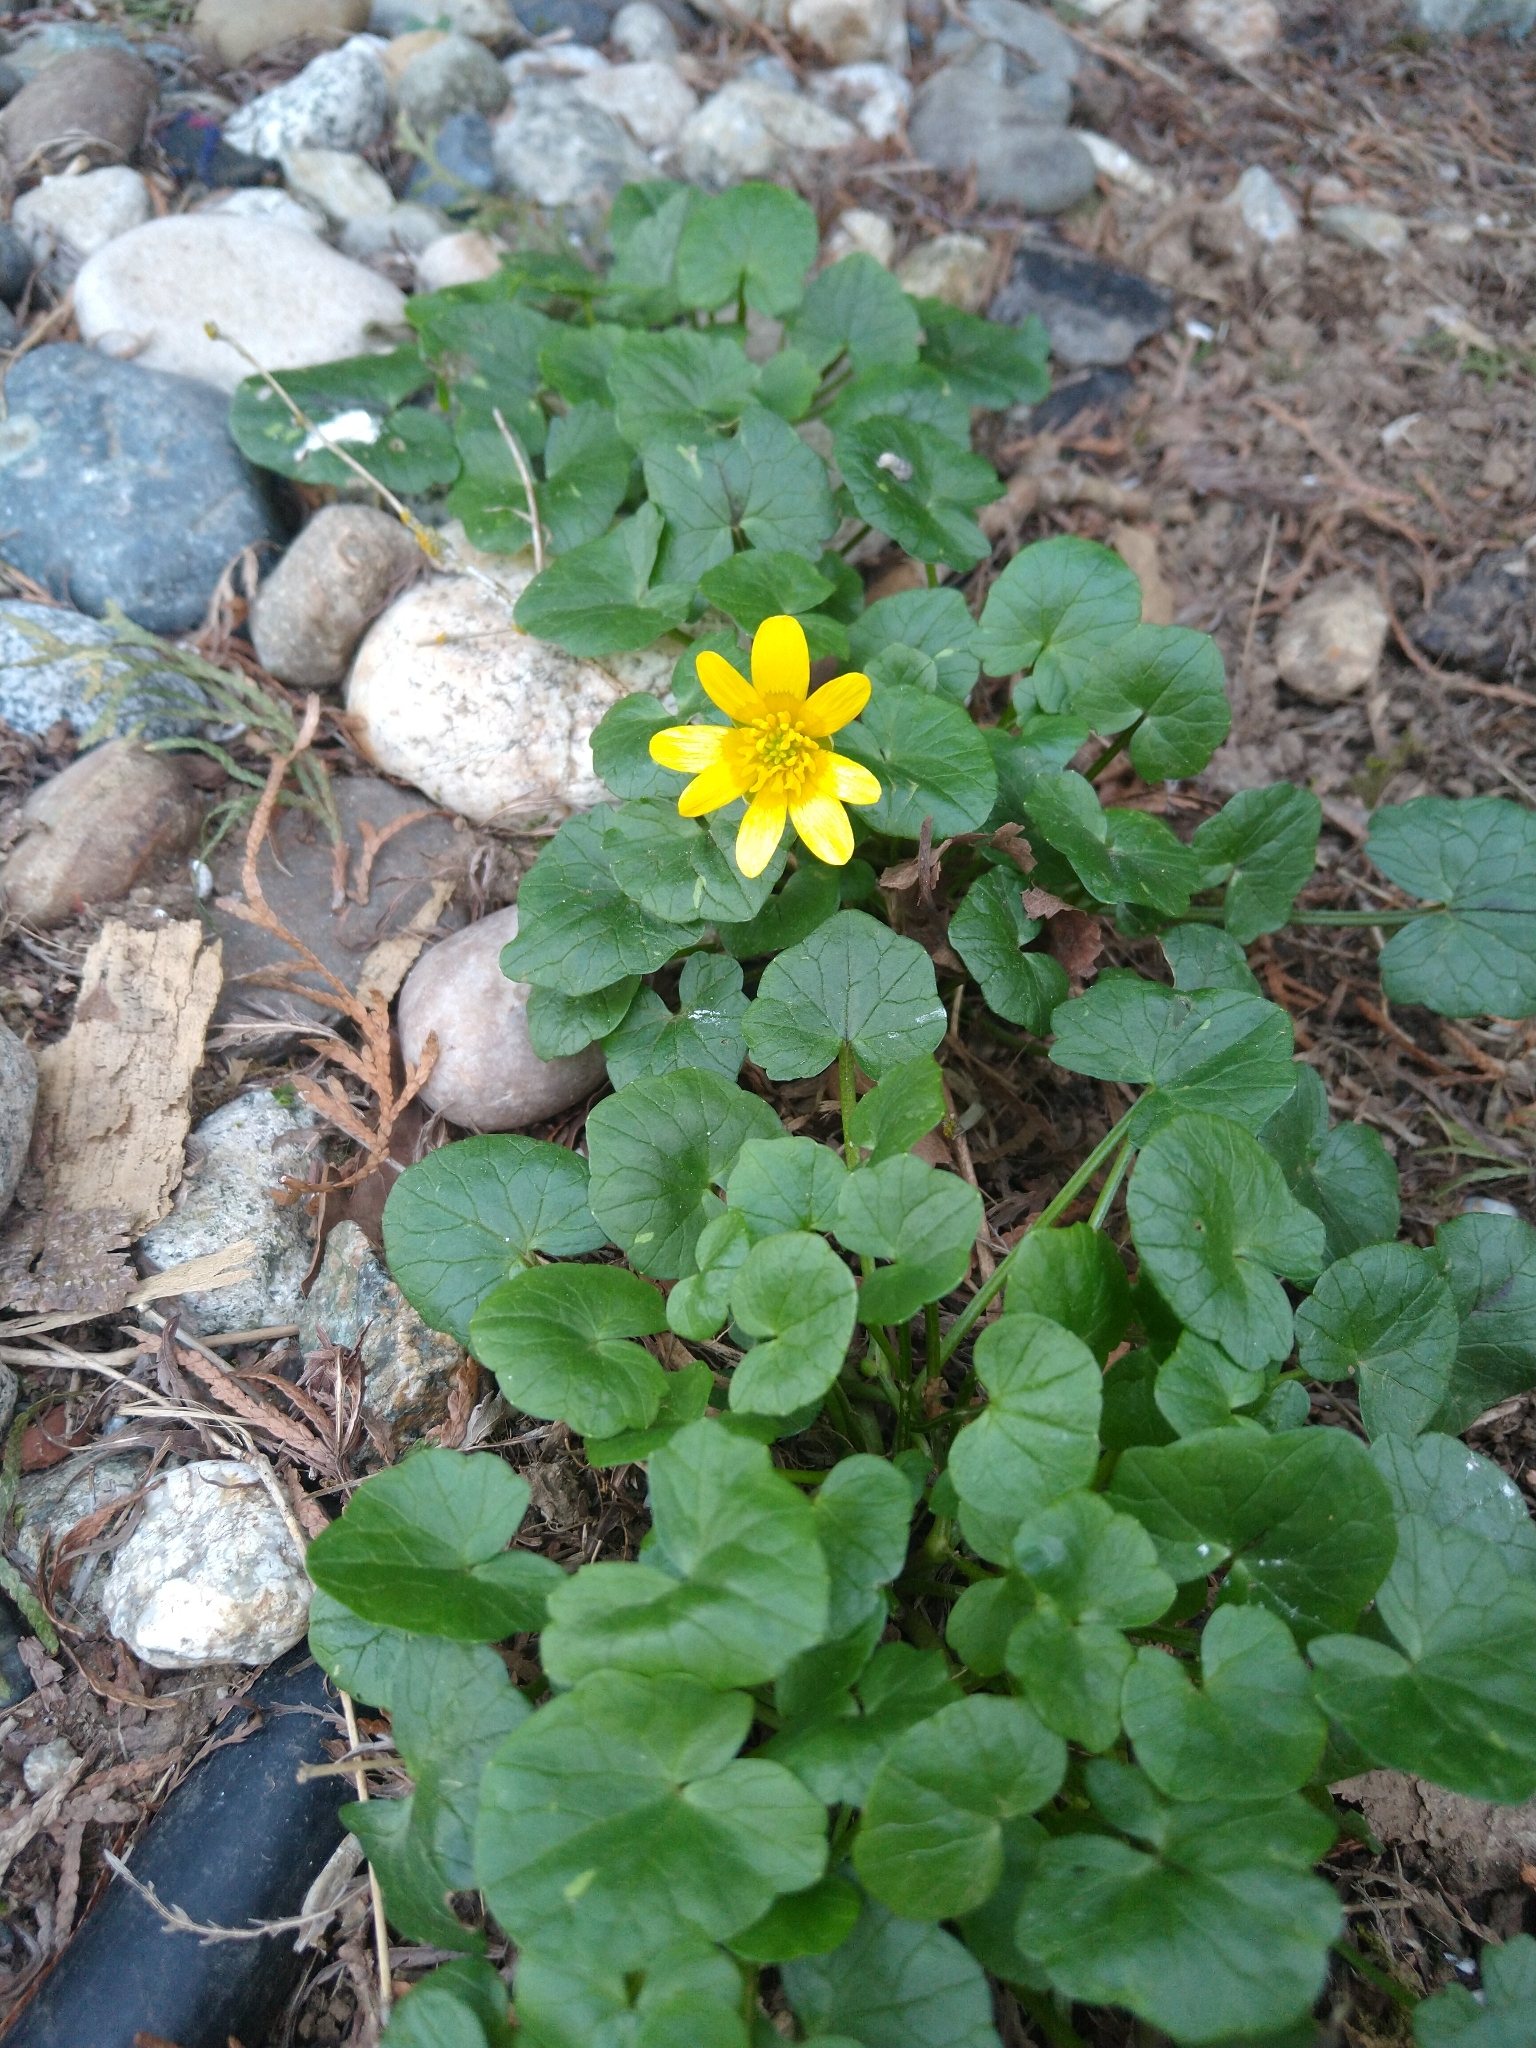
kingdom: Plantae
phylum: Tracheophyta
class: Magnoliopsida
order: Ranunculales
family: Ranunculaceae
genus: Ficaria
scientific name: Ficaria verna
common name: Lesser celandine
